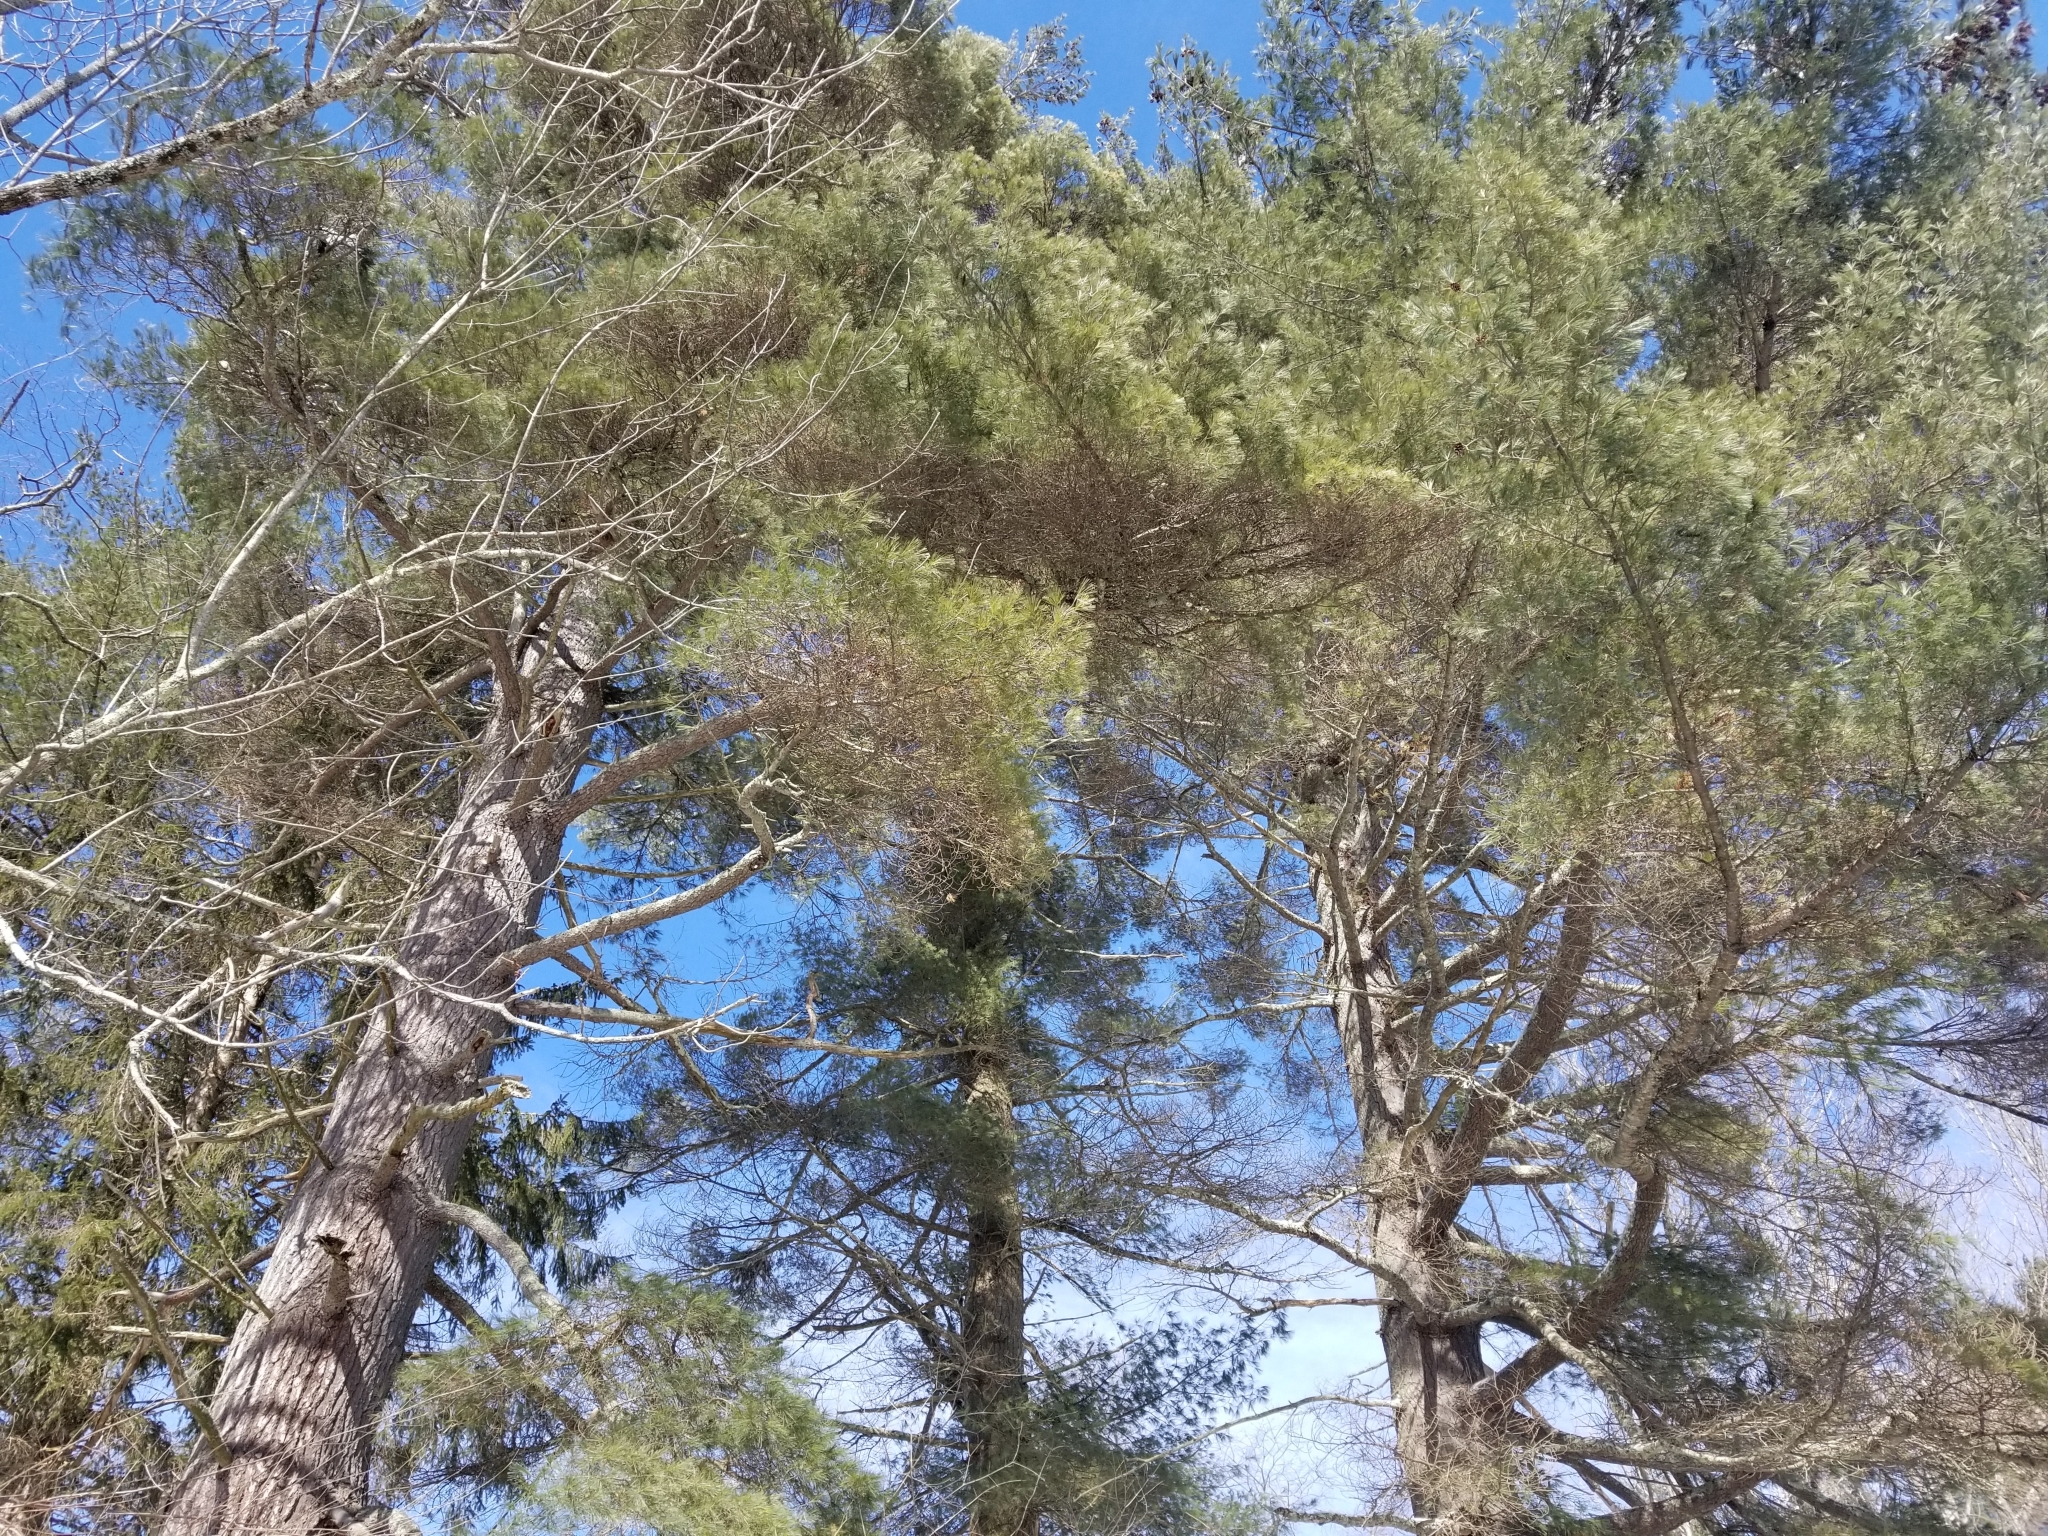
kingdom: Plantae
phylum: Tracheophyta
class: Pinopsida
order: Pinales
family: Pinaceae
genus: Pinus
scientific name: Pinus strobus
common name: Weymouth pine
